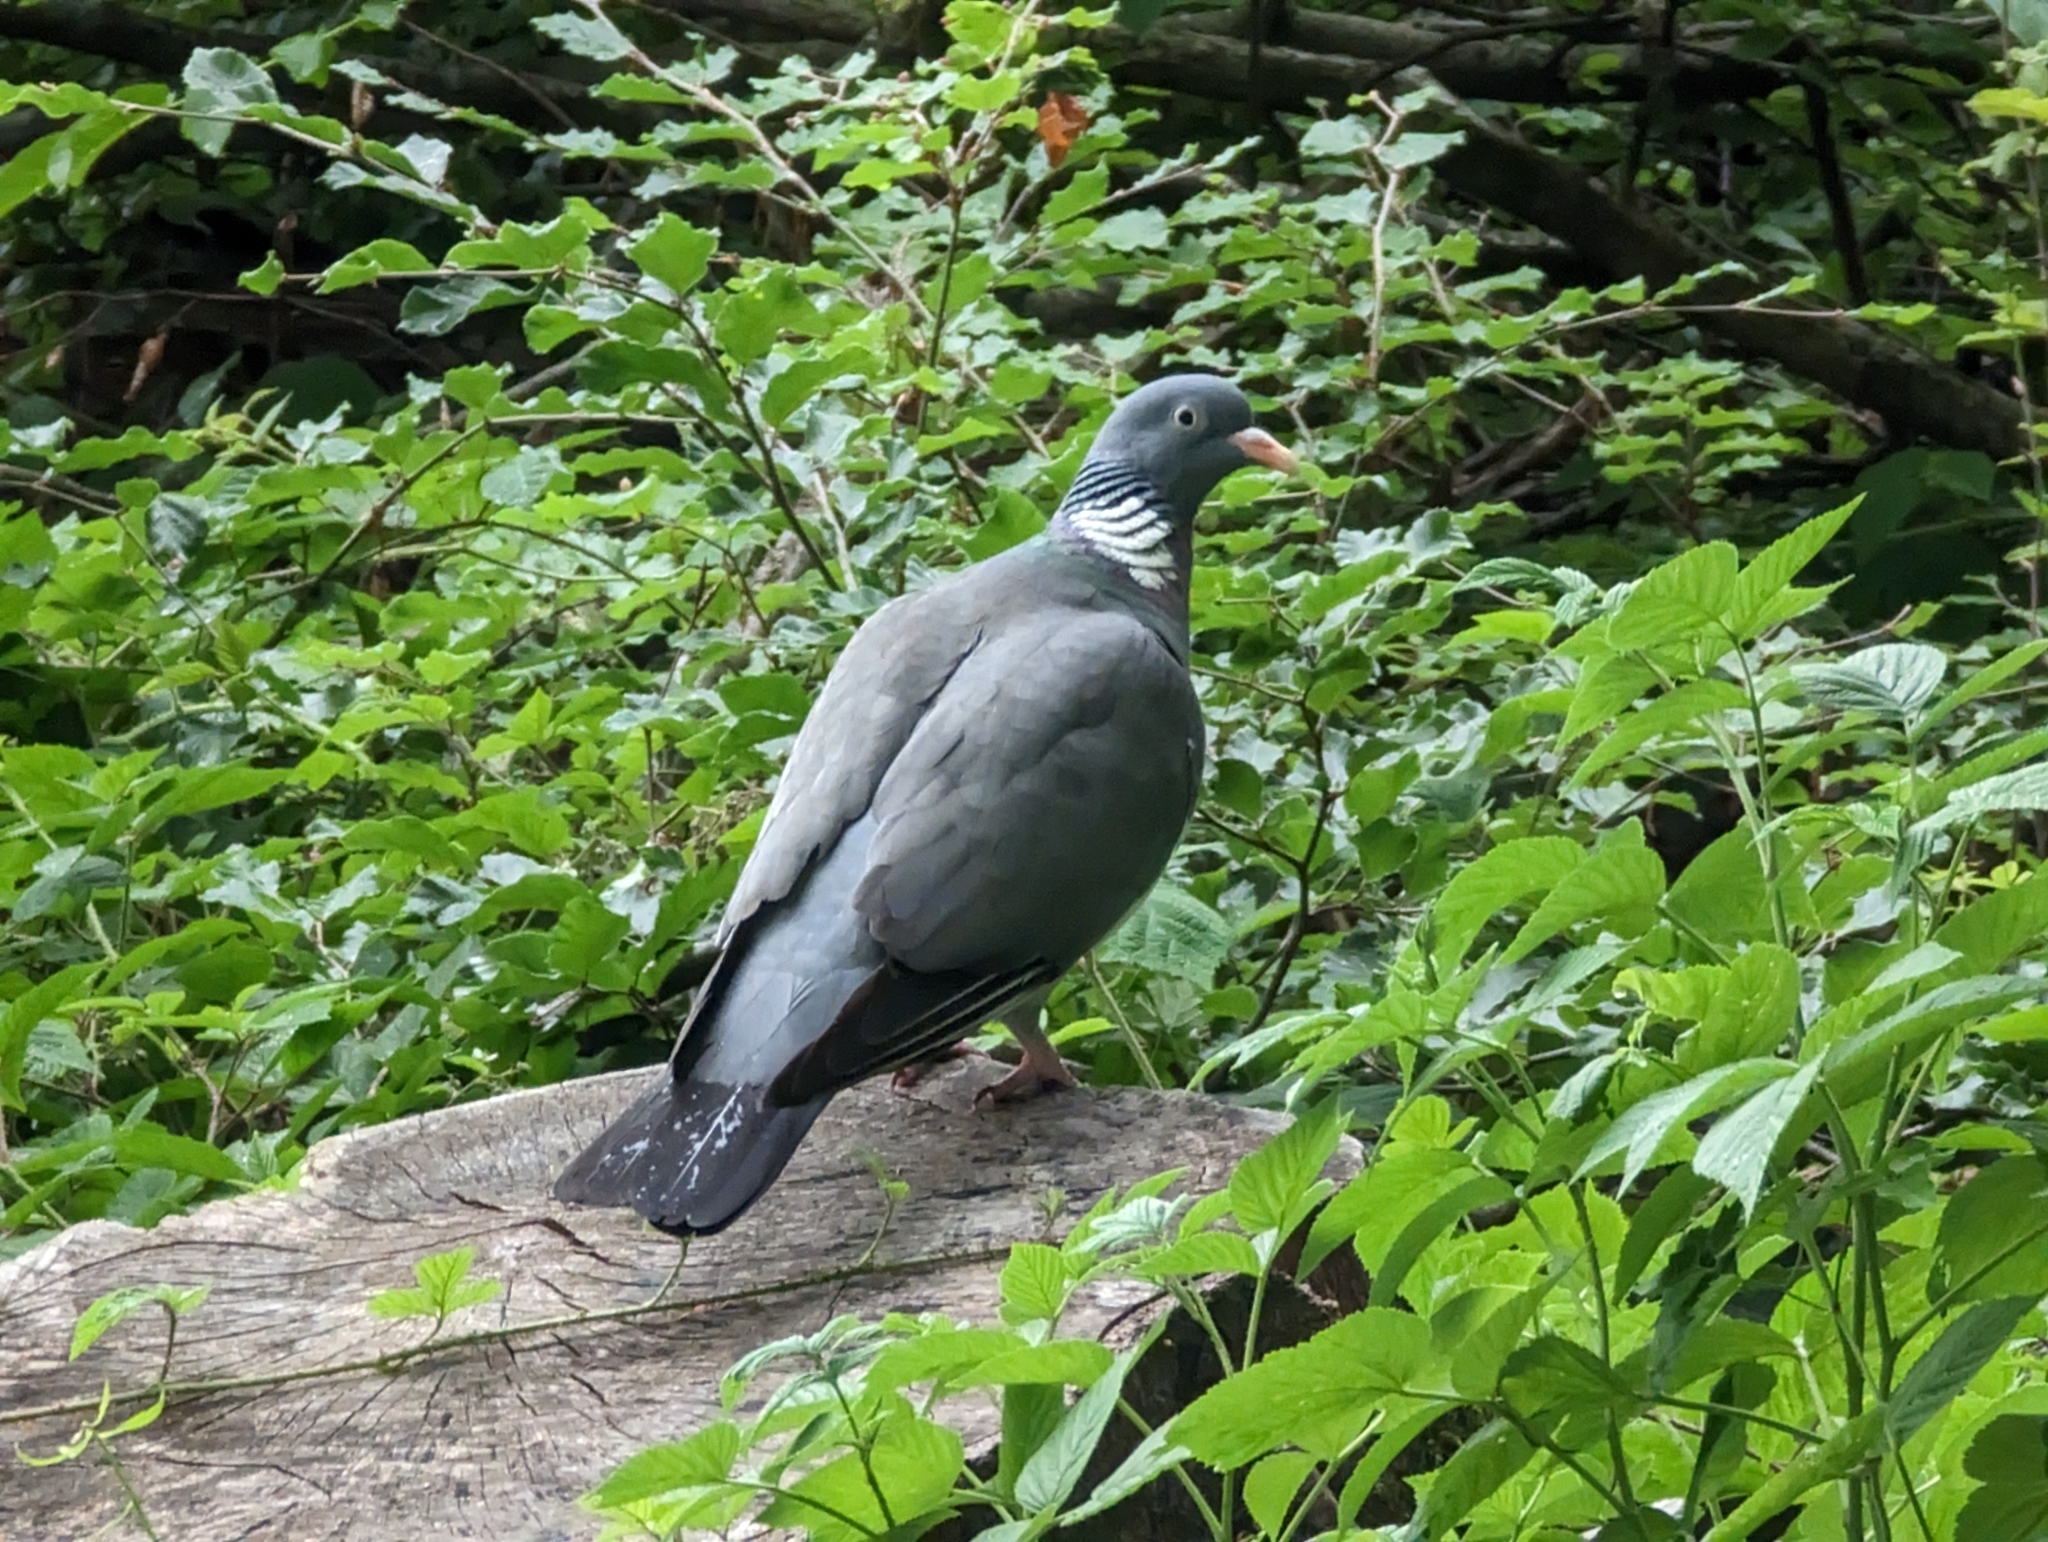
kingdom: Animalia
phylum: Chordata
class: Aves
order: Columbiformes
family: Columbidae
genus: Columba
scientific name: Columba palumbus
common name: Common wood pigeon
